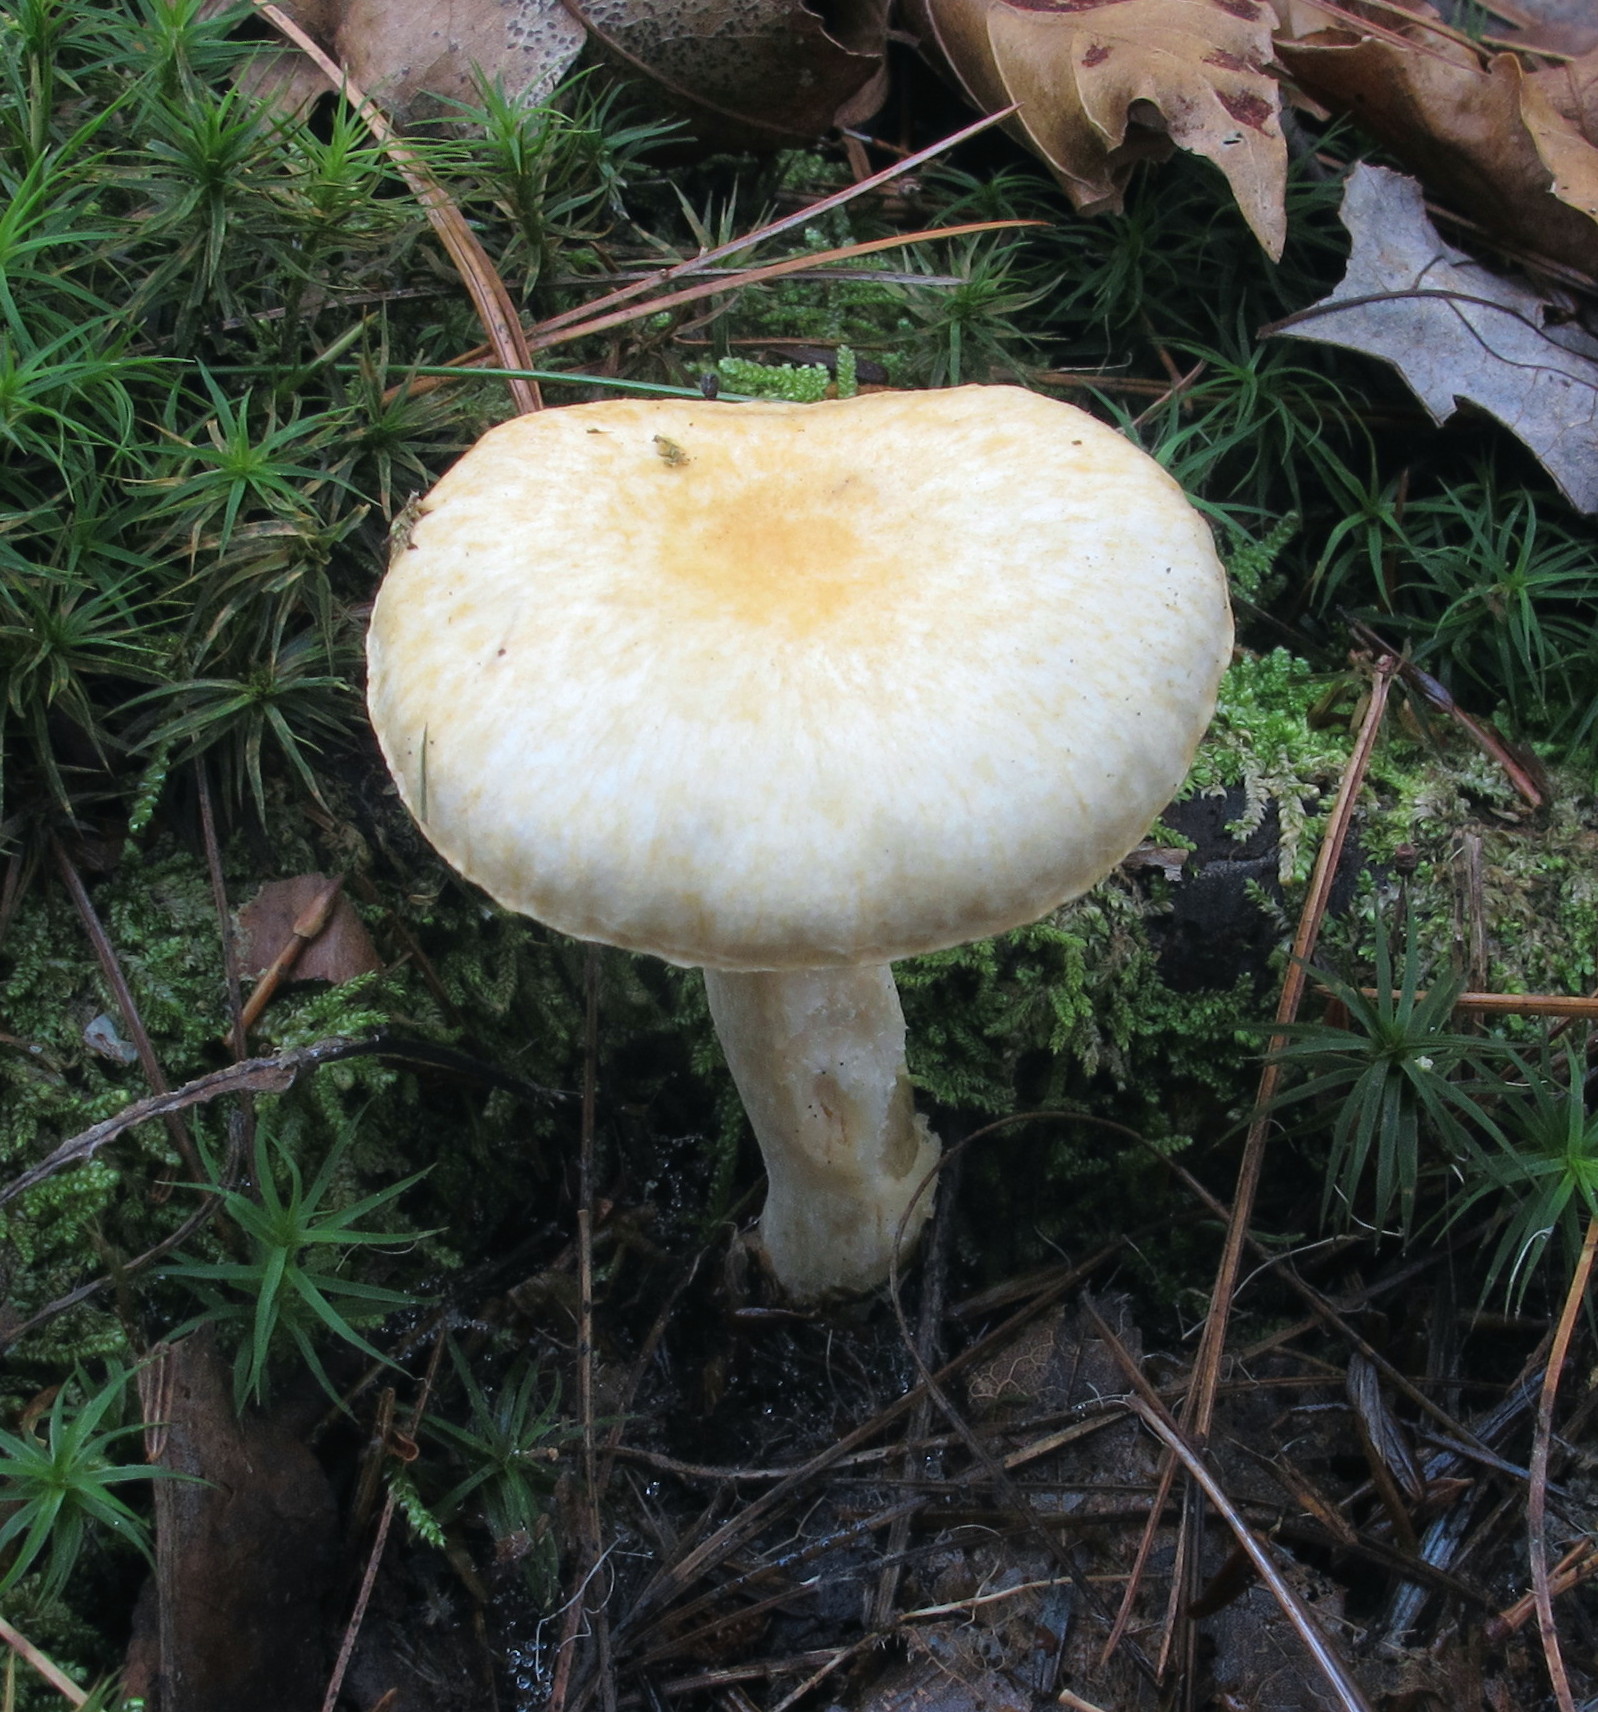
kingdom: Fungi
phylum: Basidiomycota
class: Agaricomycetes
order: Agaricales
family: Hygrophoraceae
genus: Hygrophorus
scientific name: Hygrophorus ligatus
